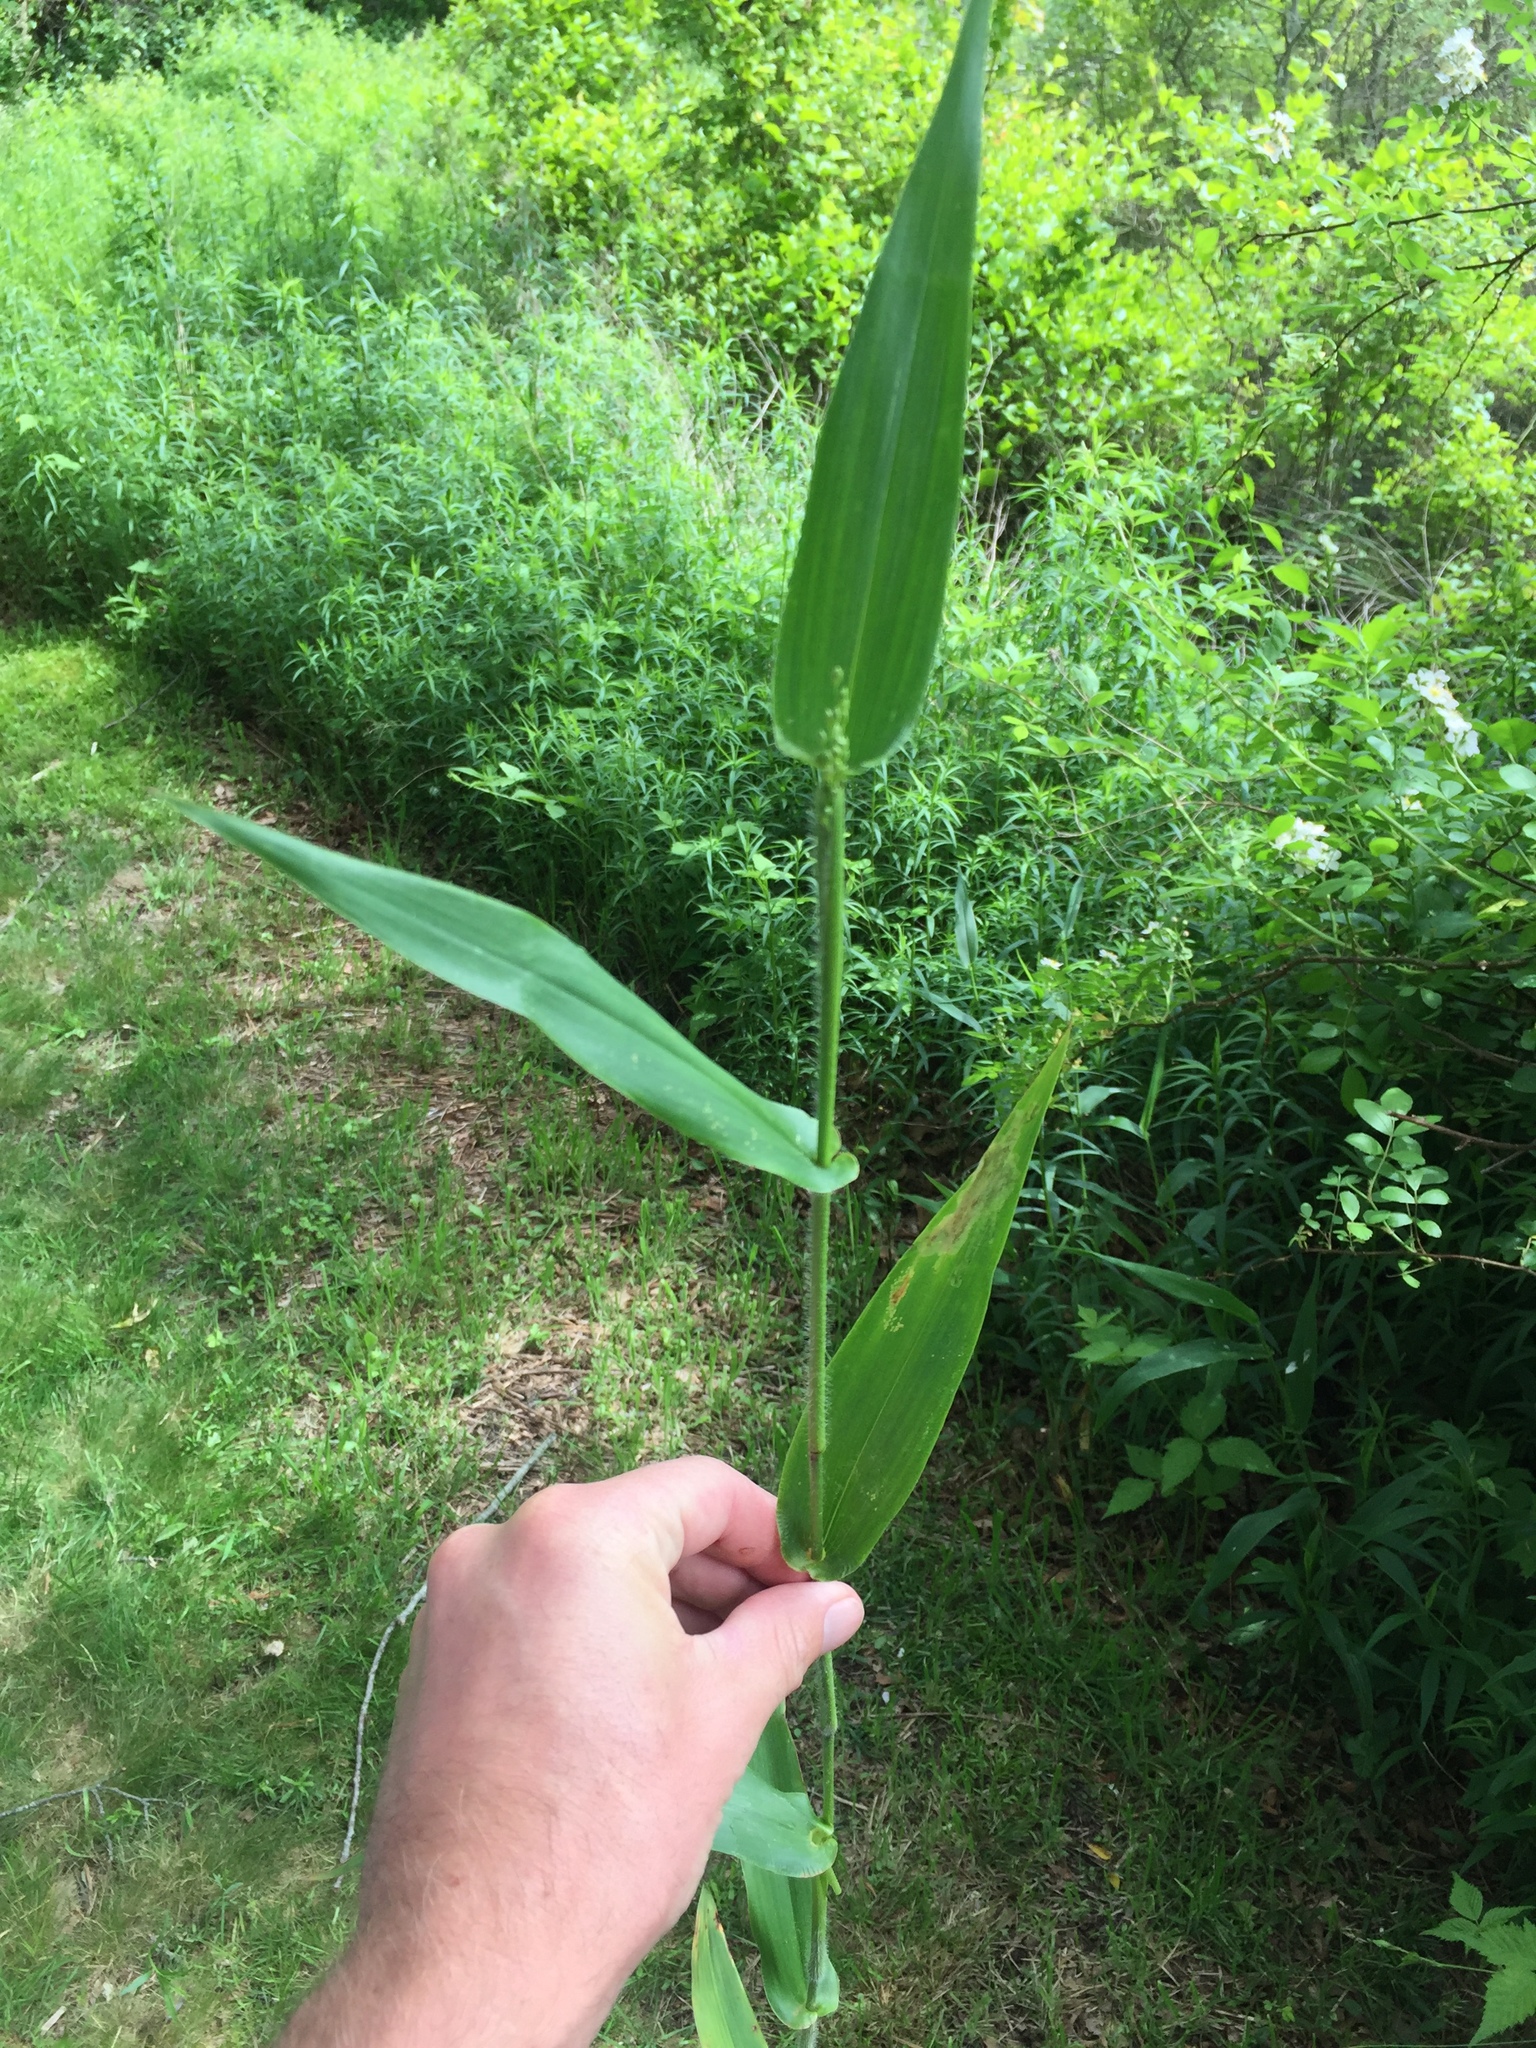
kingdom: Plantae
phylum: Tracheophyta
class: Liliopsida
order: Poales
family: Poaceae
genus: Dichanthelium
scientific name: Dichanthelium clandestinum
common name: Deer-tongue grass
